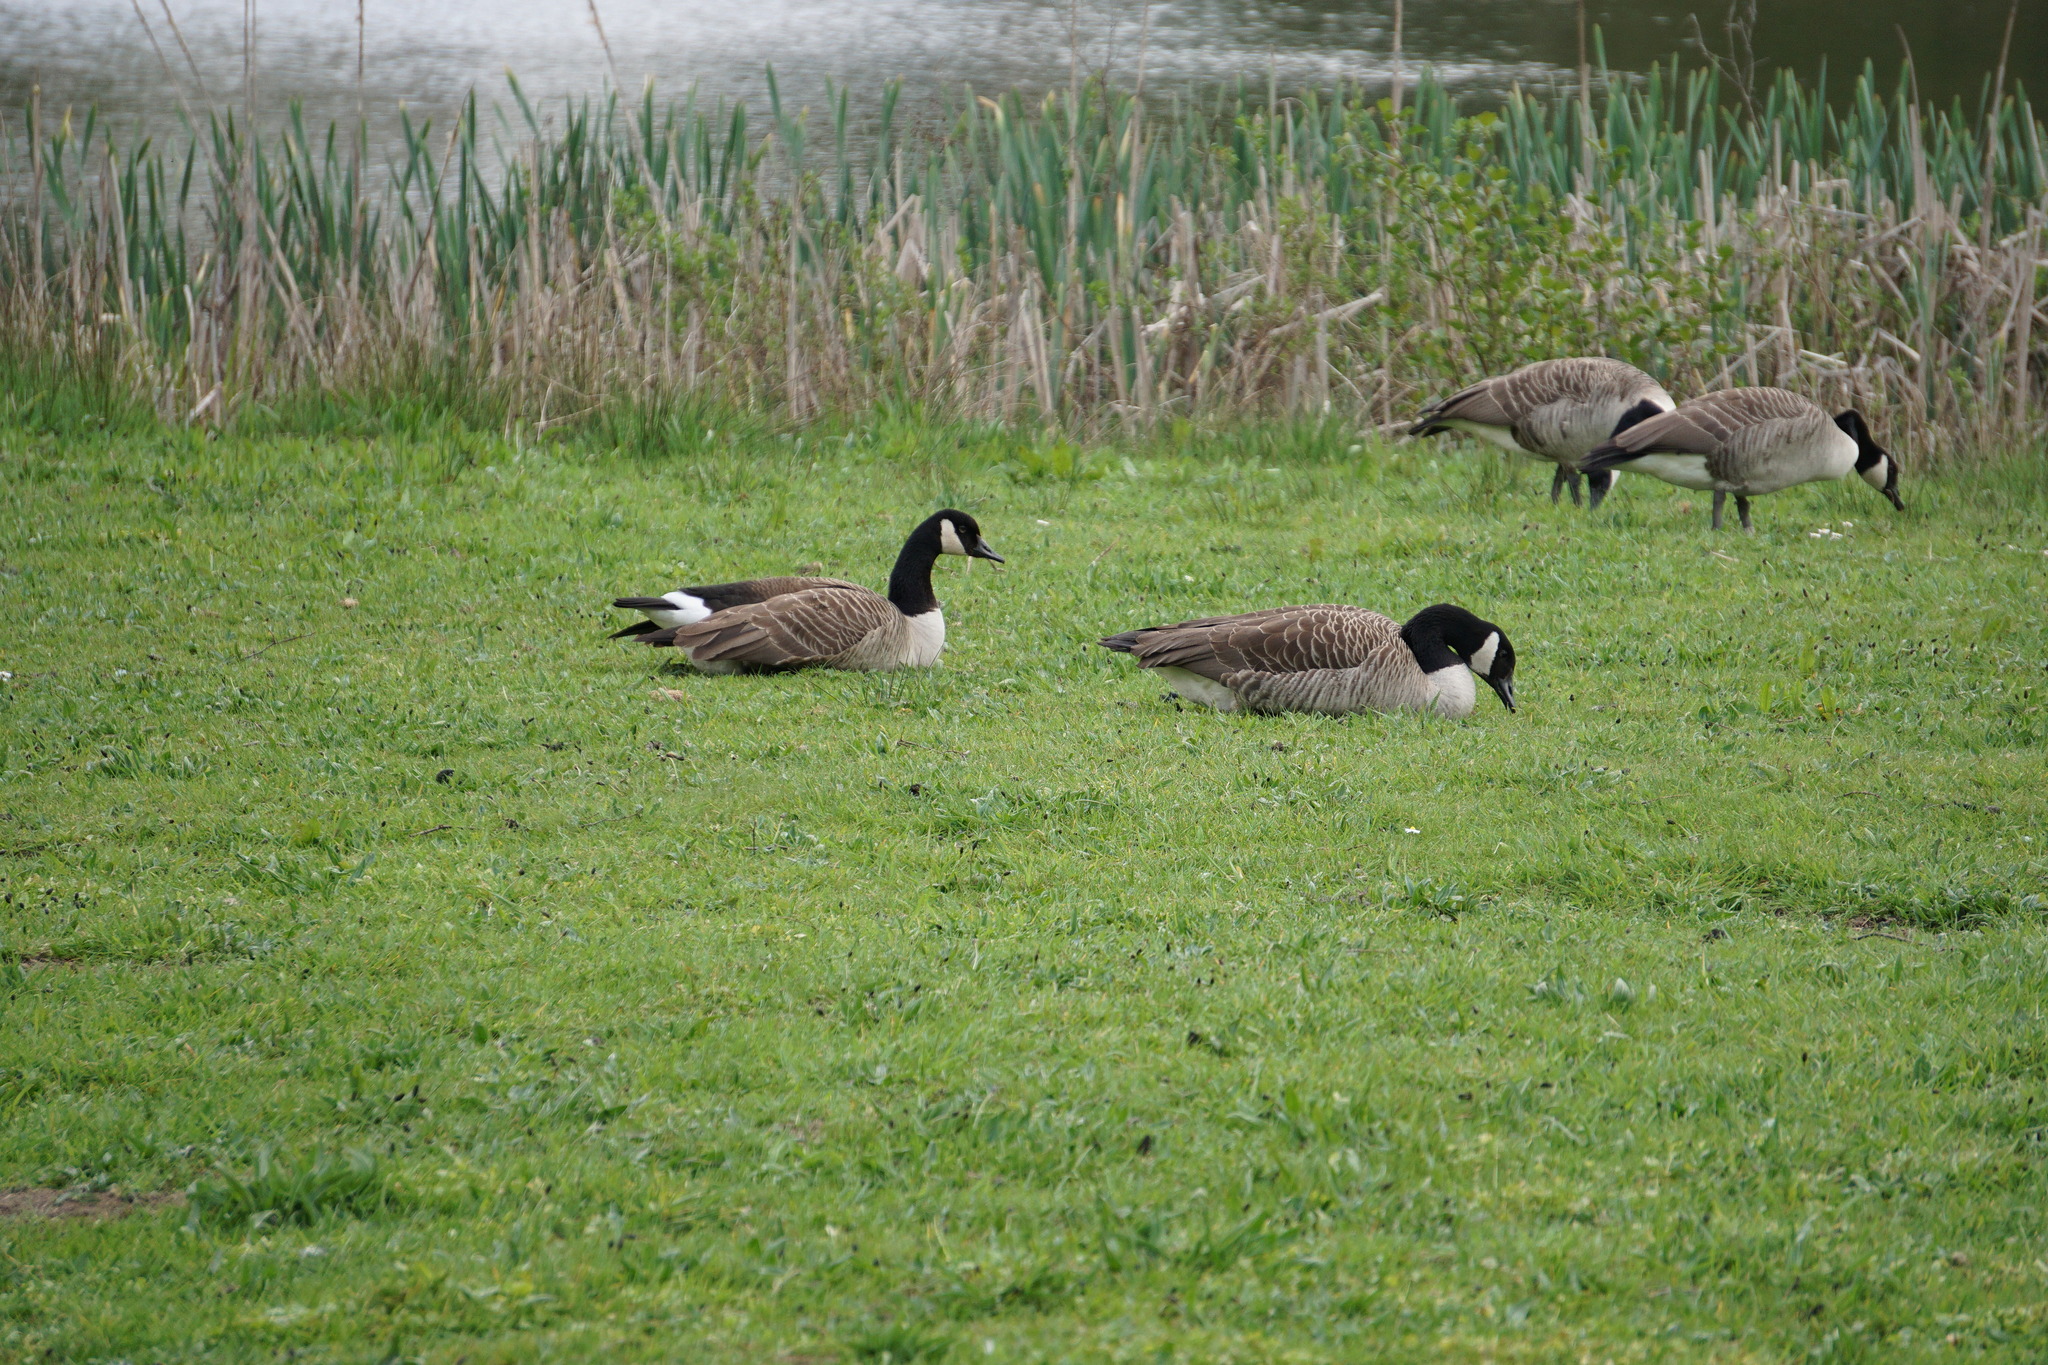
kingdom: Animalia
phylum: Chordata
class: Aves
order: Anseriformes
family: Anatidae
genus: Branta
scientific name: Branta canadensis
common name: Canada goose
